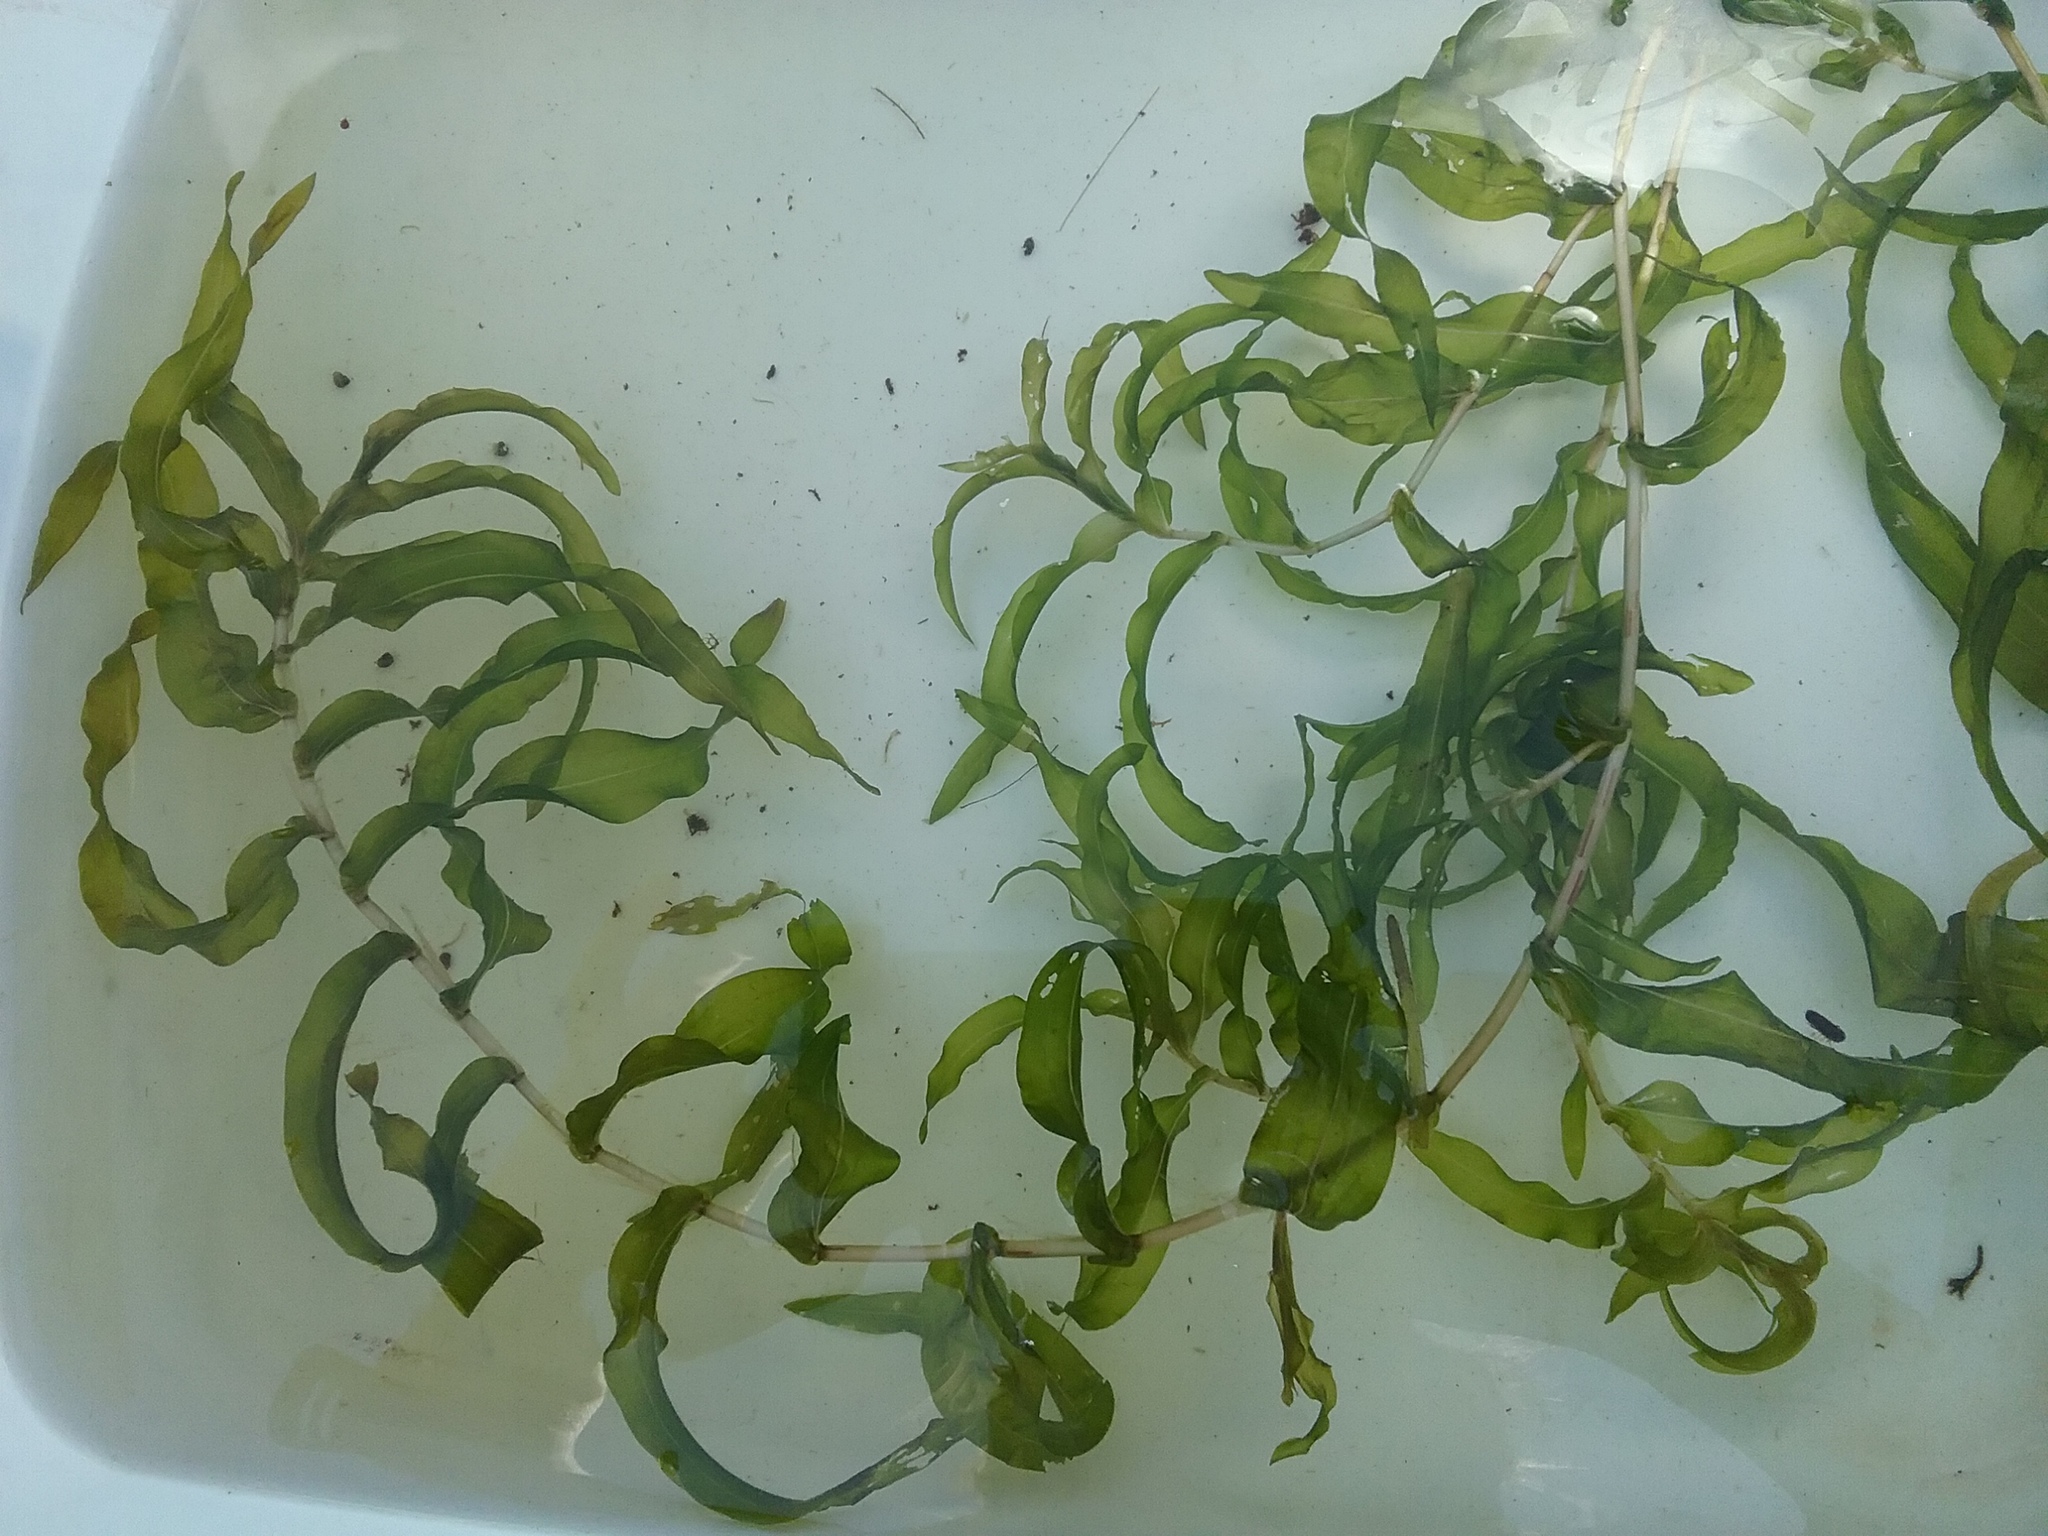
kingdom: Plantae
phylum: Tracheophyta
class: Liliopsida
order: Alismatales
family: Potamogetonaceae
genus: Potamogeton
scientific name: Potamogeton richardsonii
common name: Richardson's pondweed
